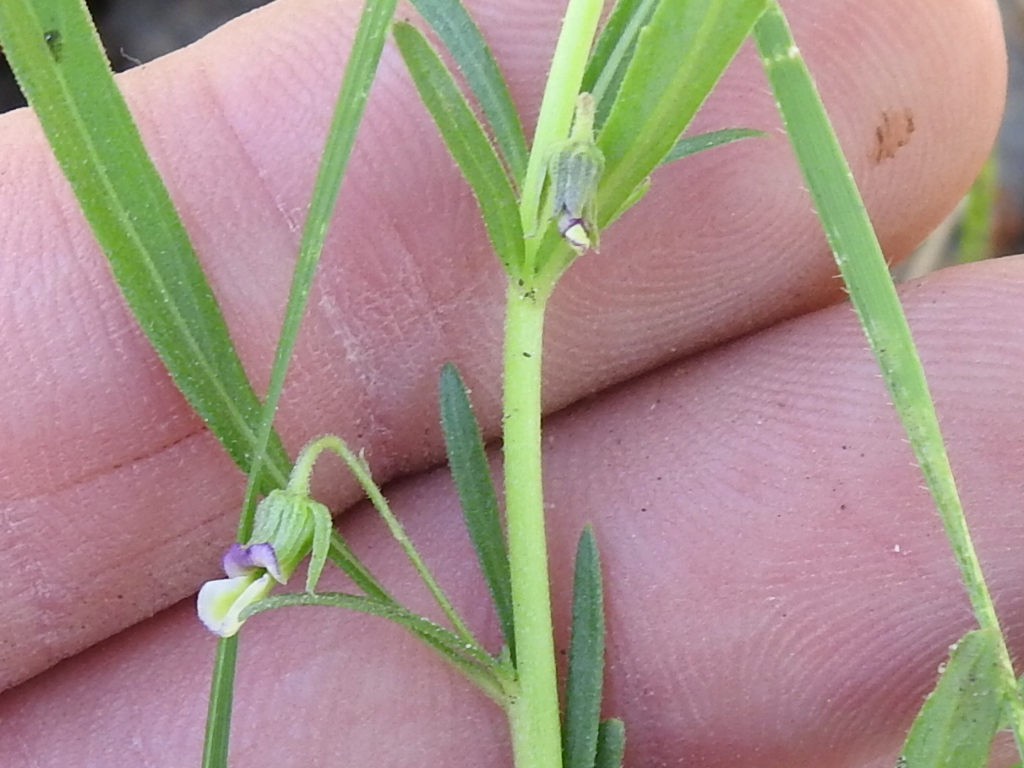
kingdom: Plantae
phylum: Tracheophyta
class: Magnoliopsida
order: Malpighiales
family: Violaceae
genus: Pombalia
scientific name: Pombalia verticillata
